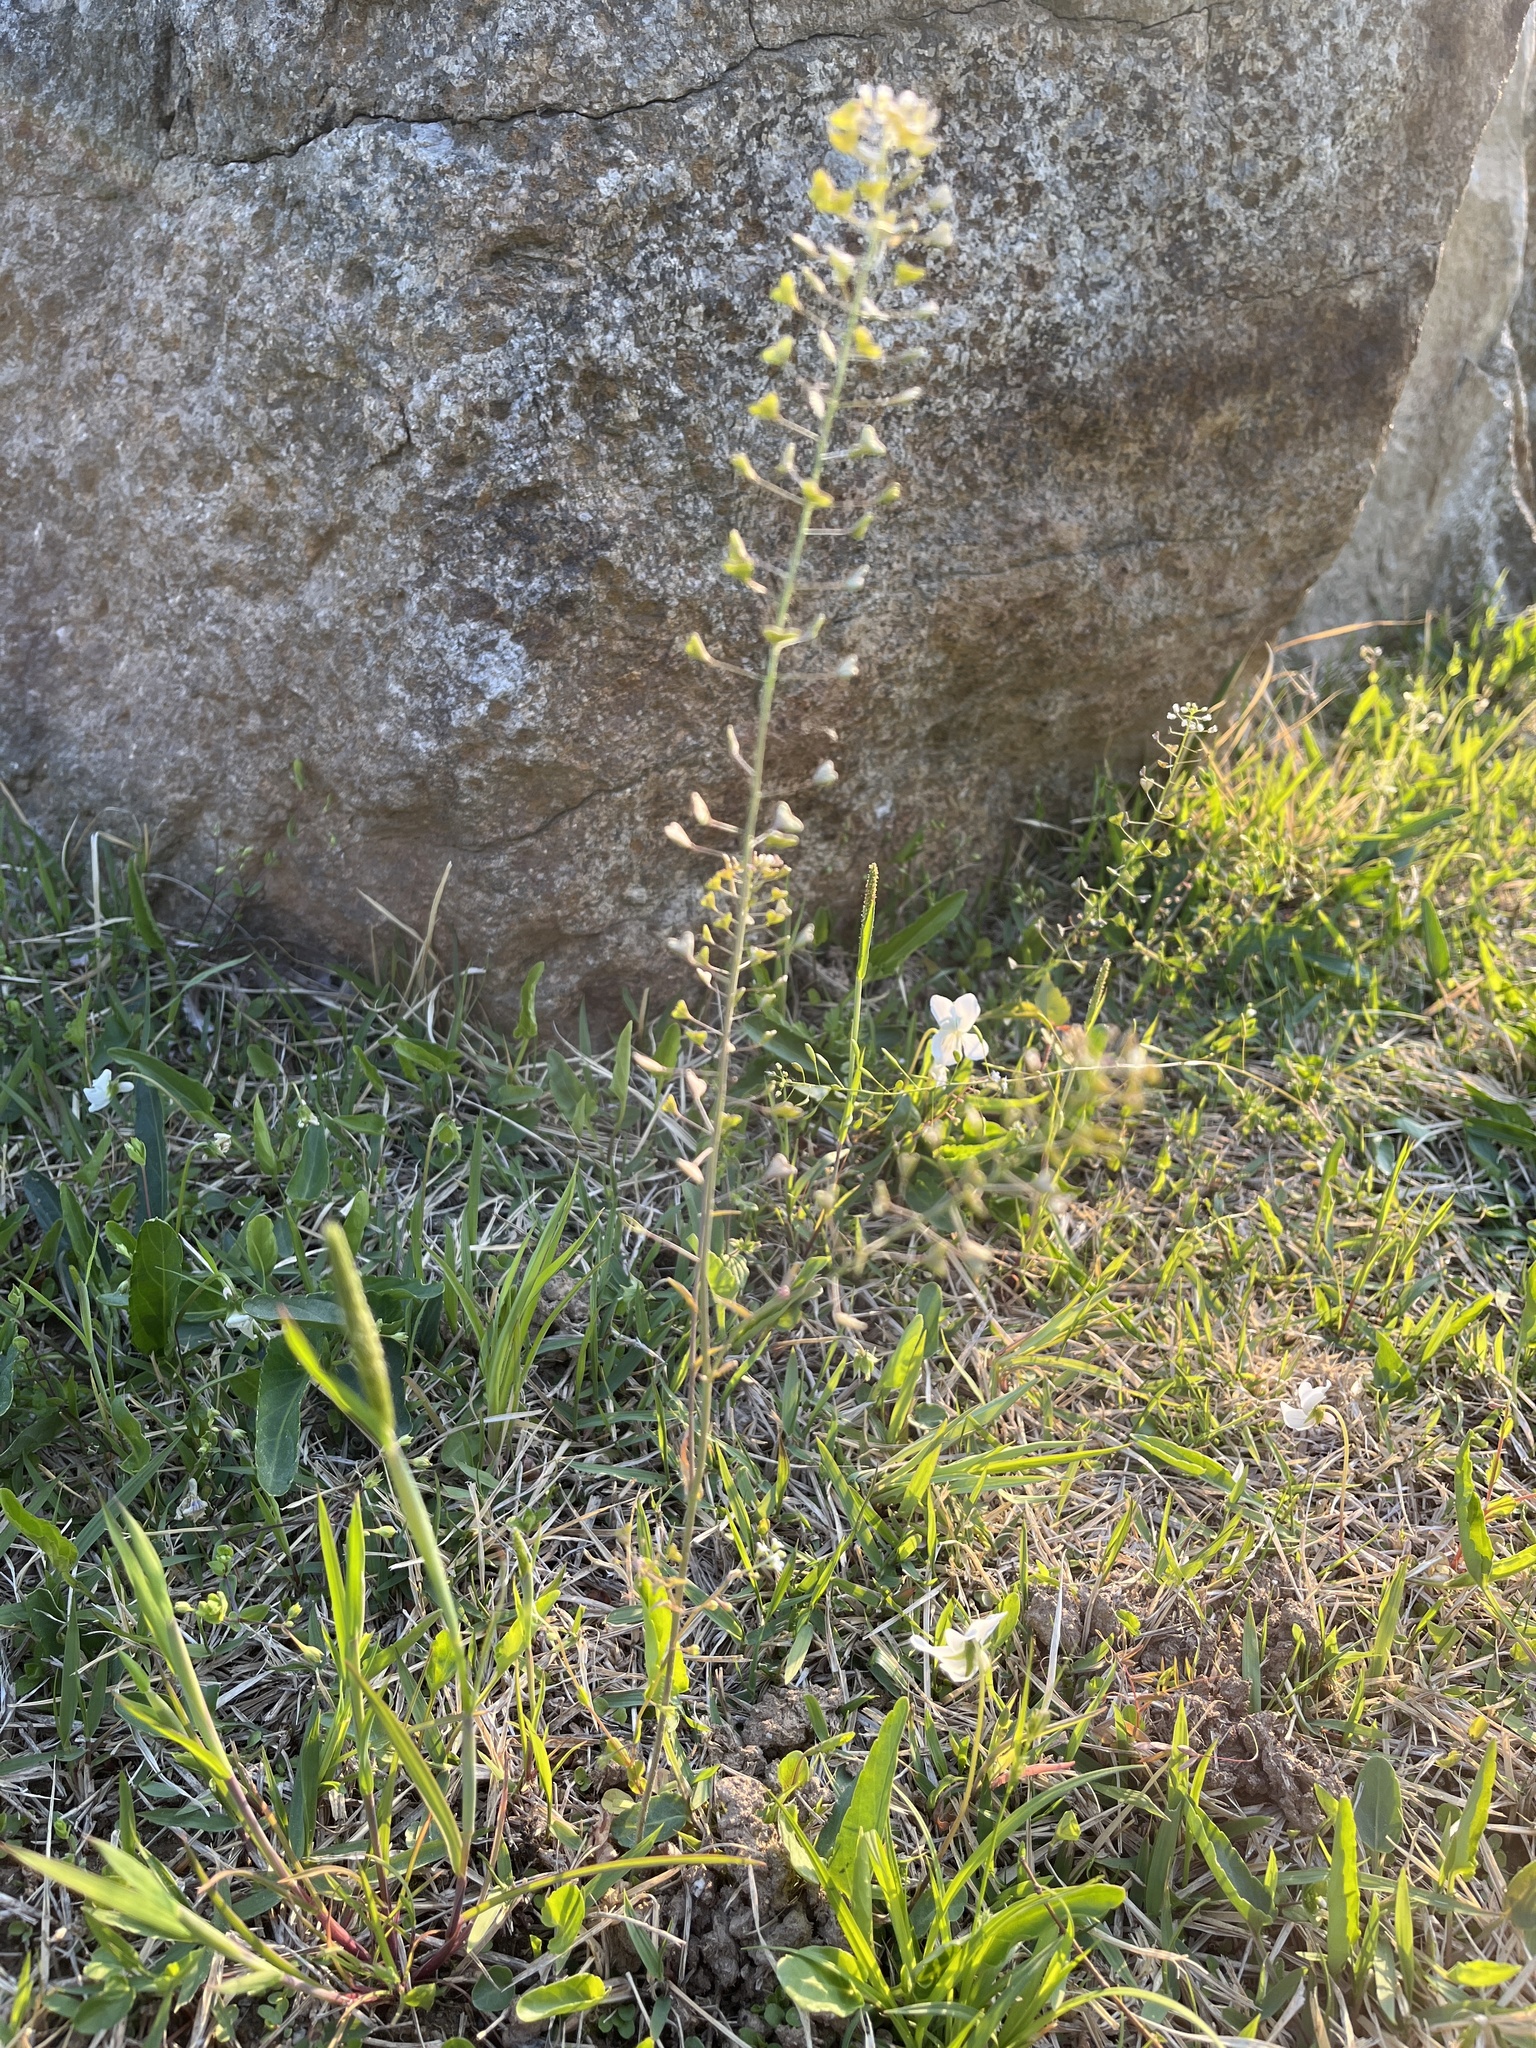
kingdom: Plantae
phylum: Tracheophyta
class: Magnoliopsida
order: Brassicales
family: Brassicaceae
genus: Capsella
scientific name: Capsella bursa-pastoris
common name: Shepherd's purse
